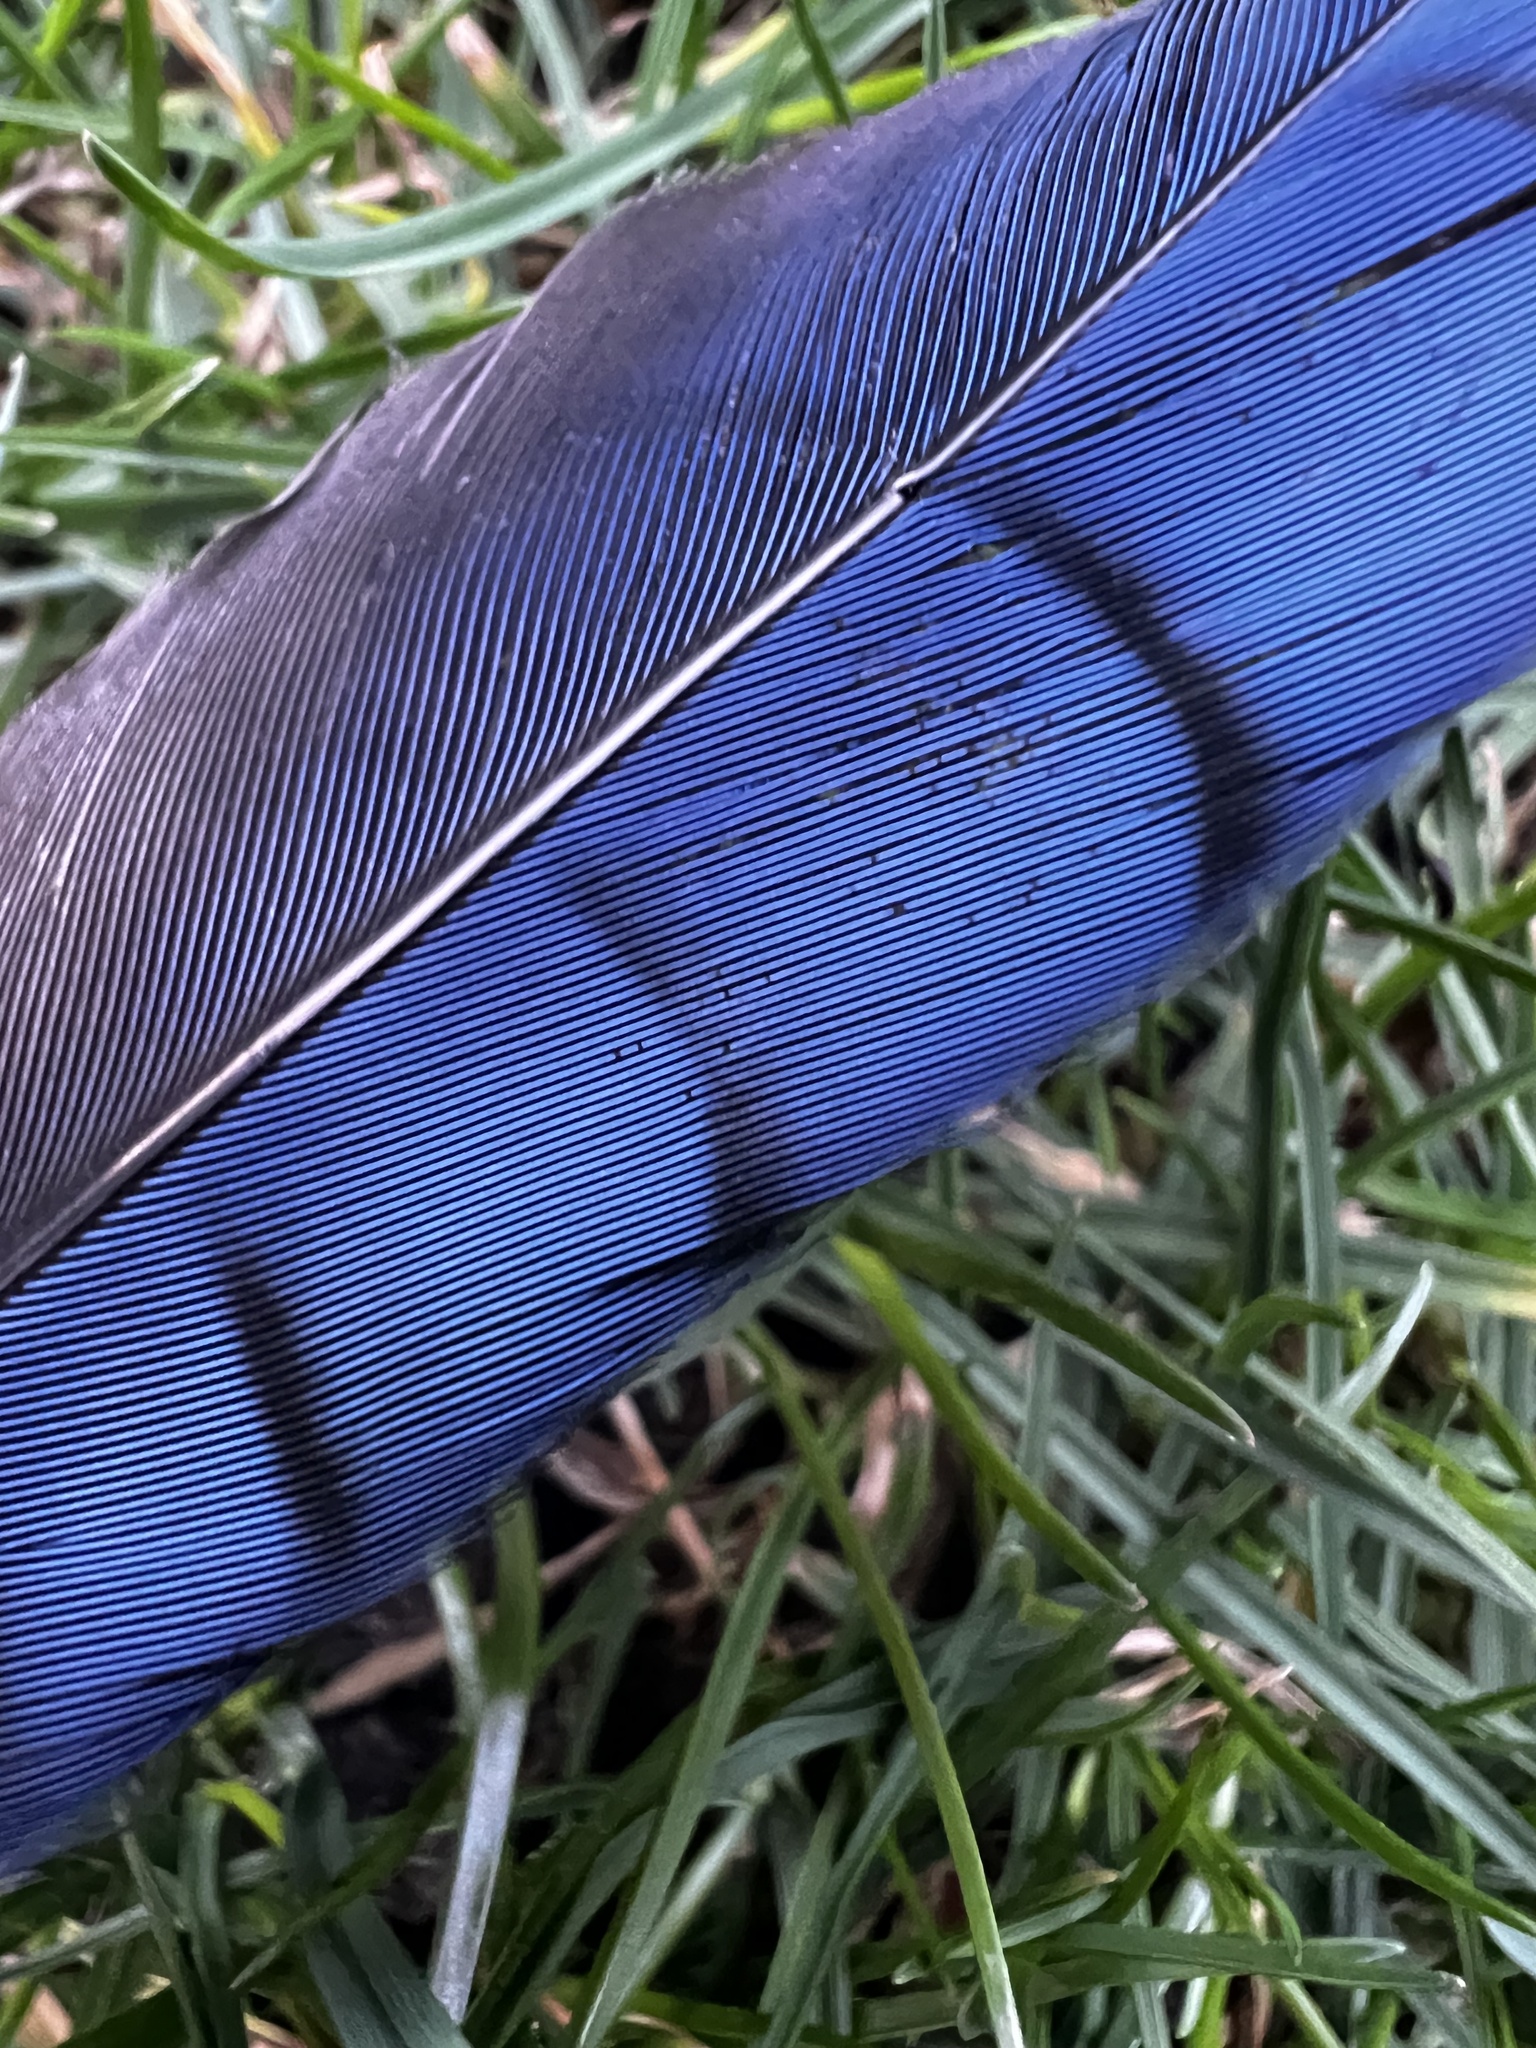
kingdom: Animalia
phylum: Chordata
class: Aves
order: Passeriformes
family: Corvidae
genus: Cyanocitta
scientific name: Cyanocitta stelleri
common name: Steller's jay
